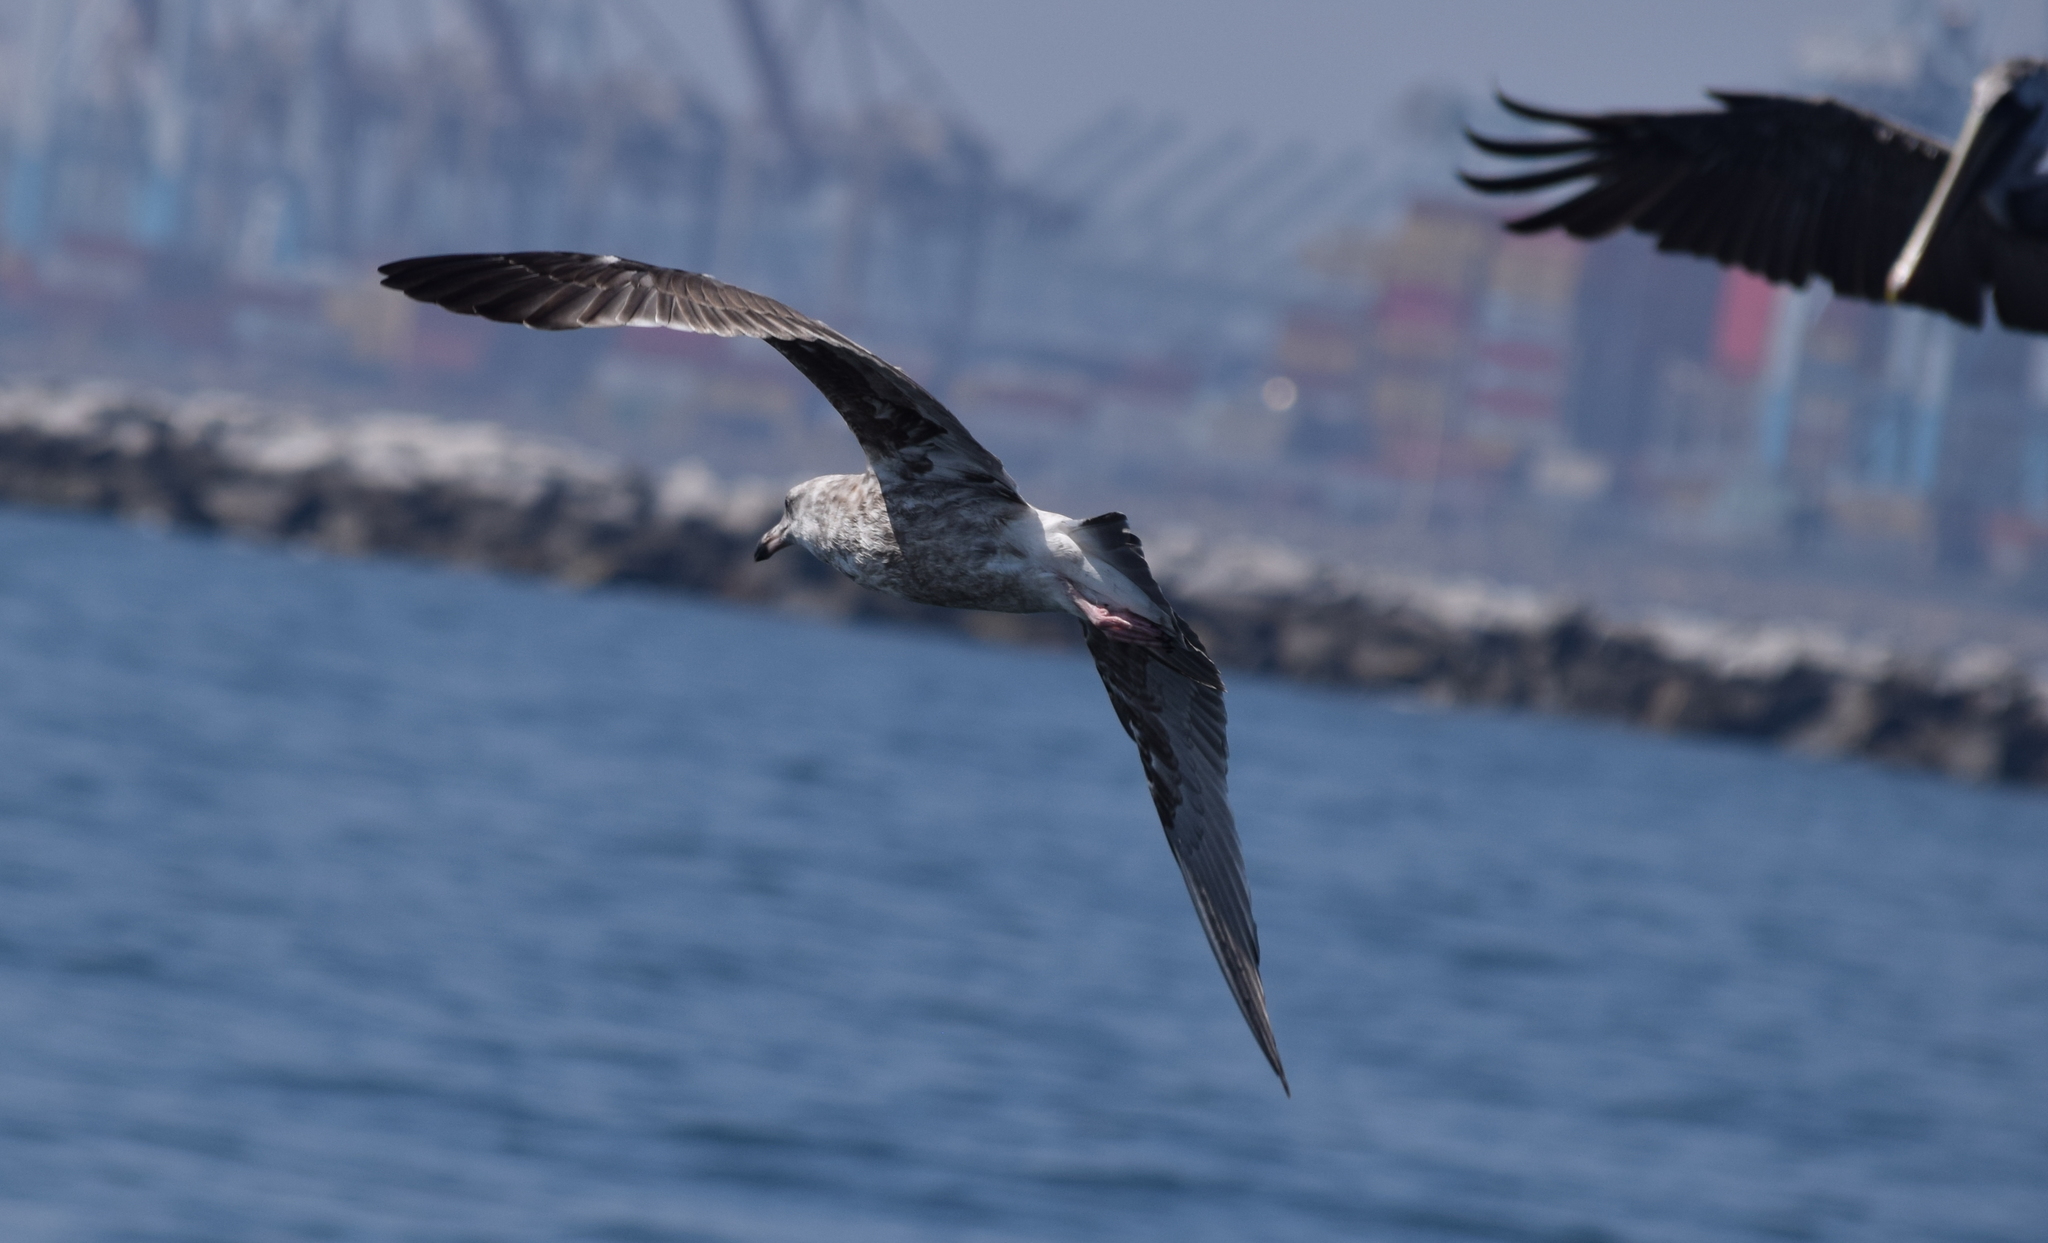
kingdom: Animalia
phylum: Chordata
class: Aves
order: Charadriiformes
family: Laridae
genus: Larus
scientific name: Larus occidentalis
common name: Western gull
